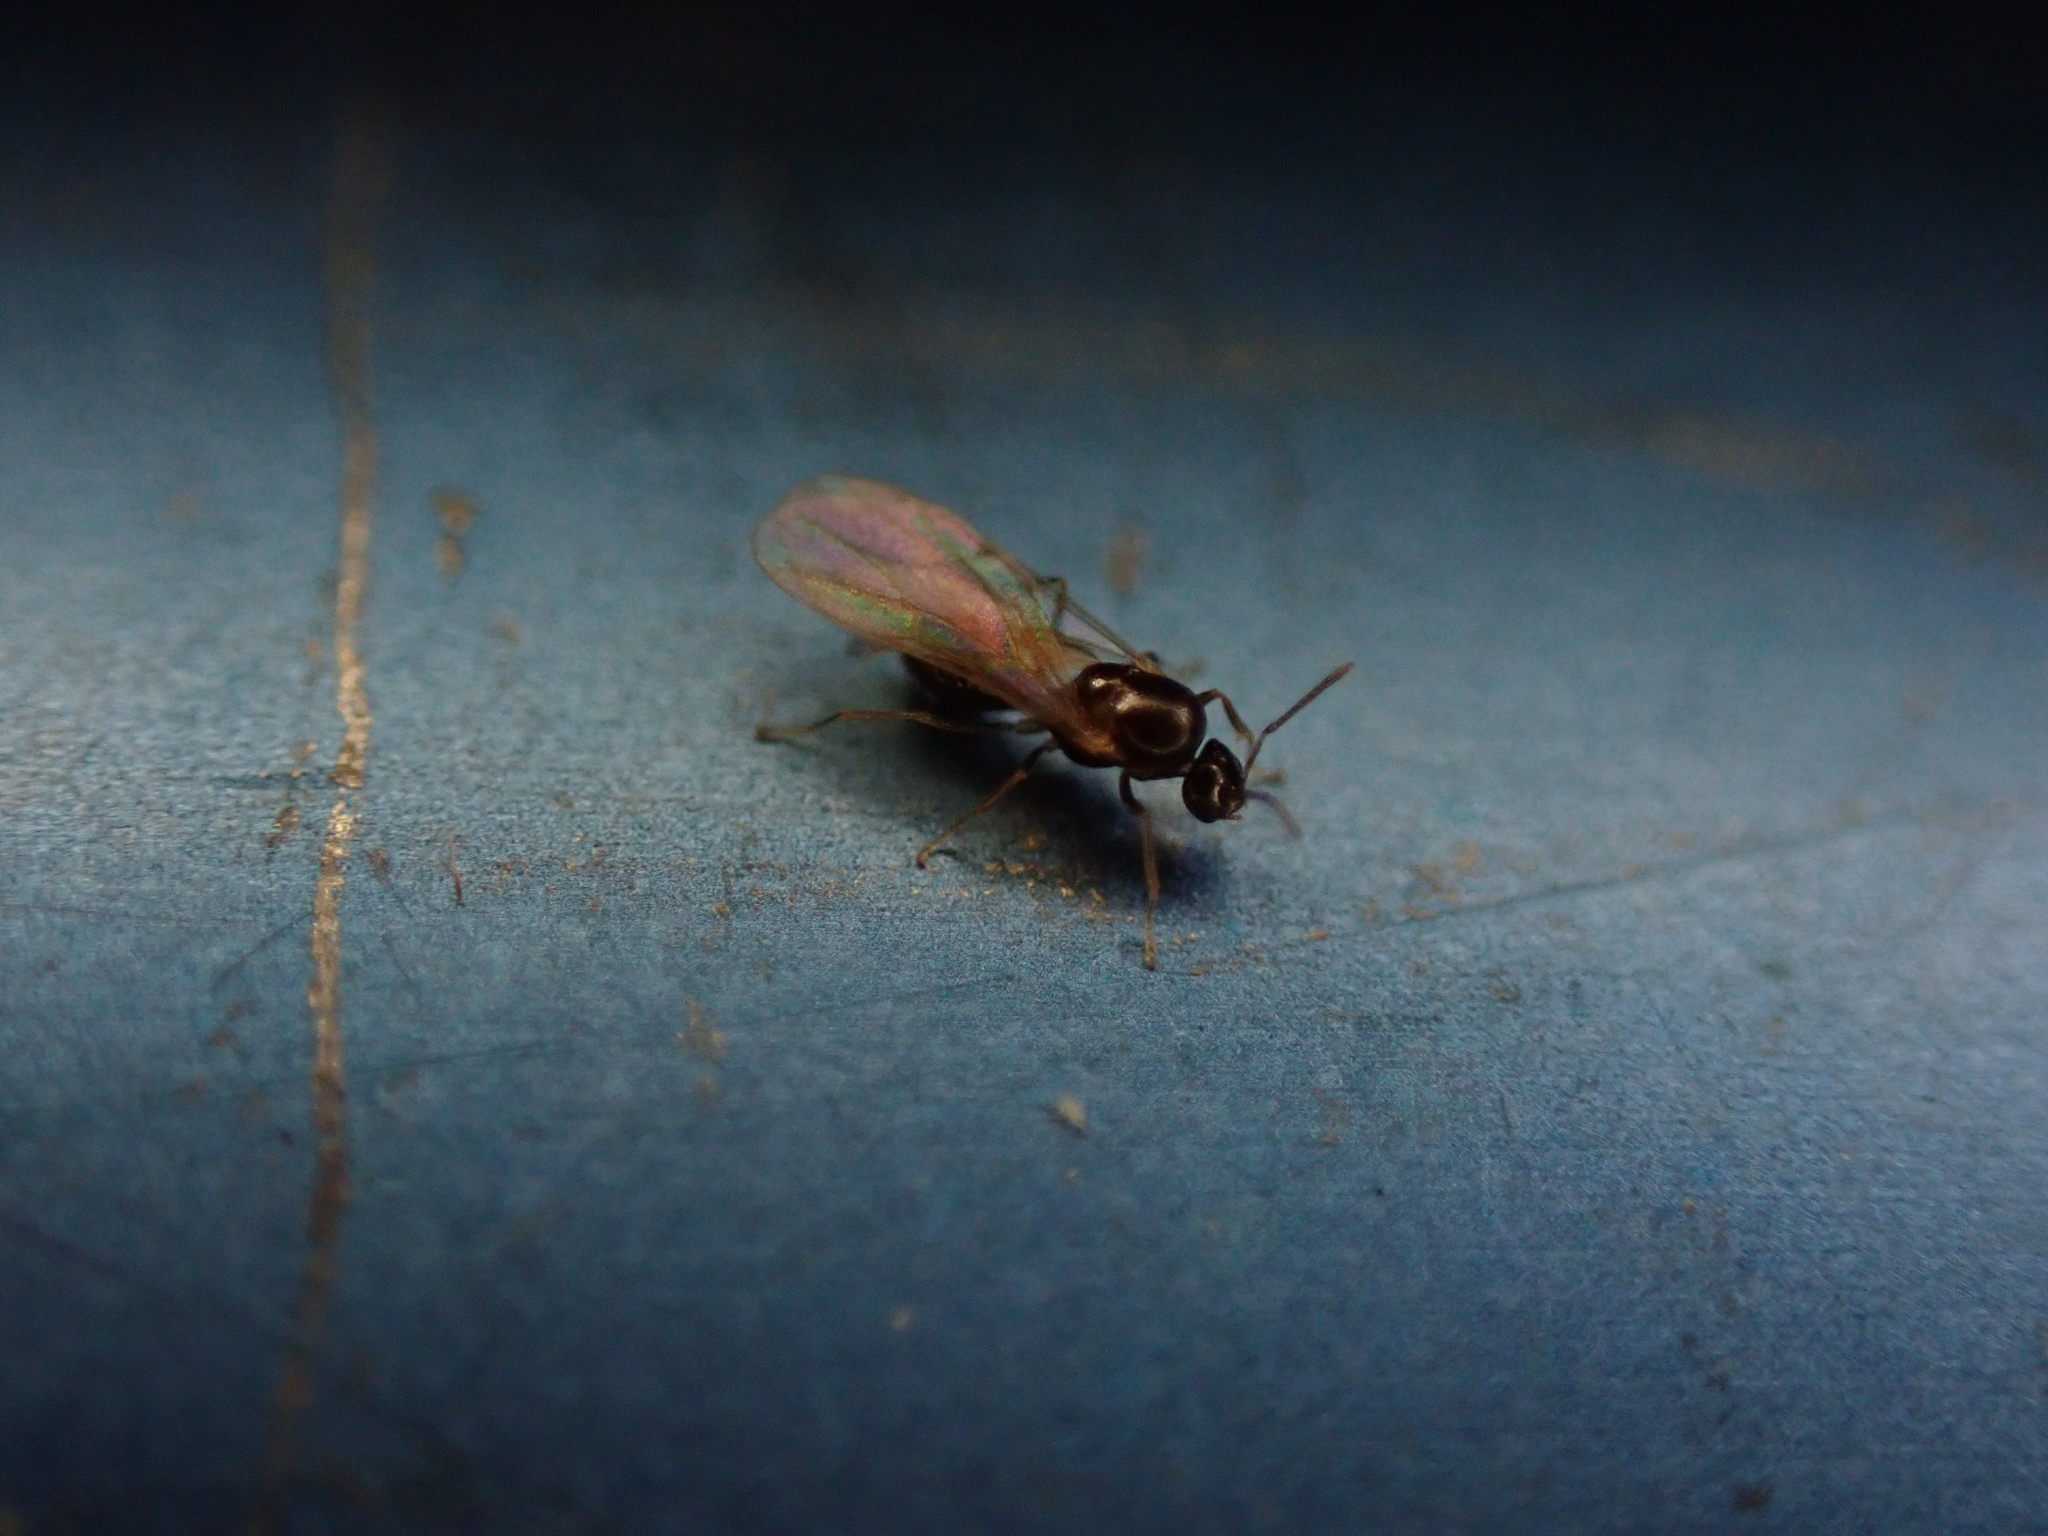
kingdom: Animalia
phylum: Arthropoda
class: Insecta
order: Hymenoptera
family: Formicidae
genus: Brachymyrmex
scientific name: Brachymyrmex obscurior
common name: Obscure rover ant
